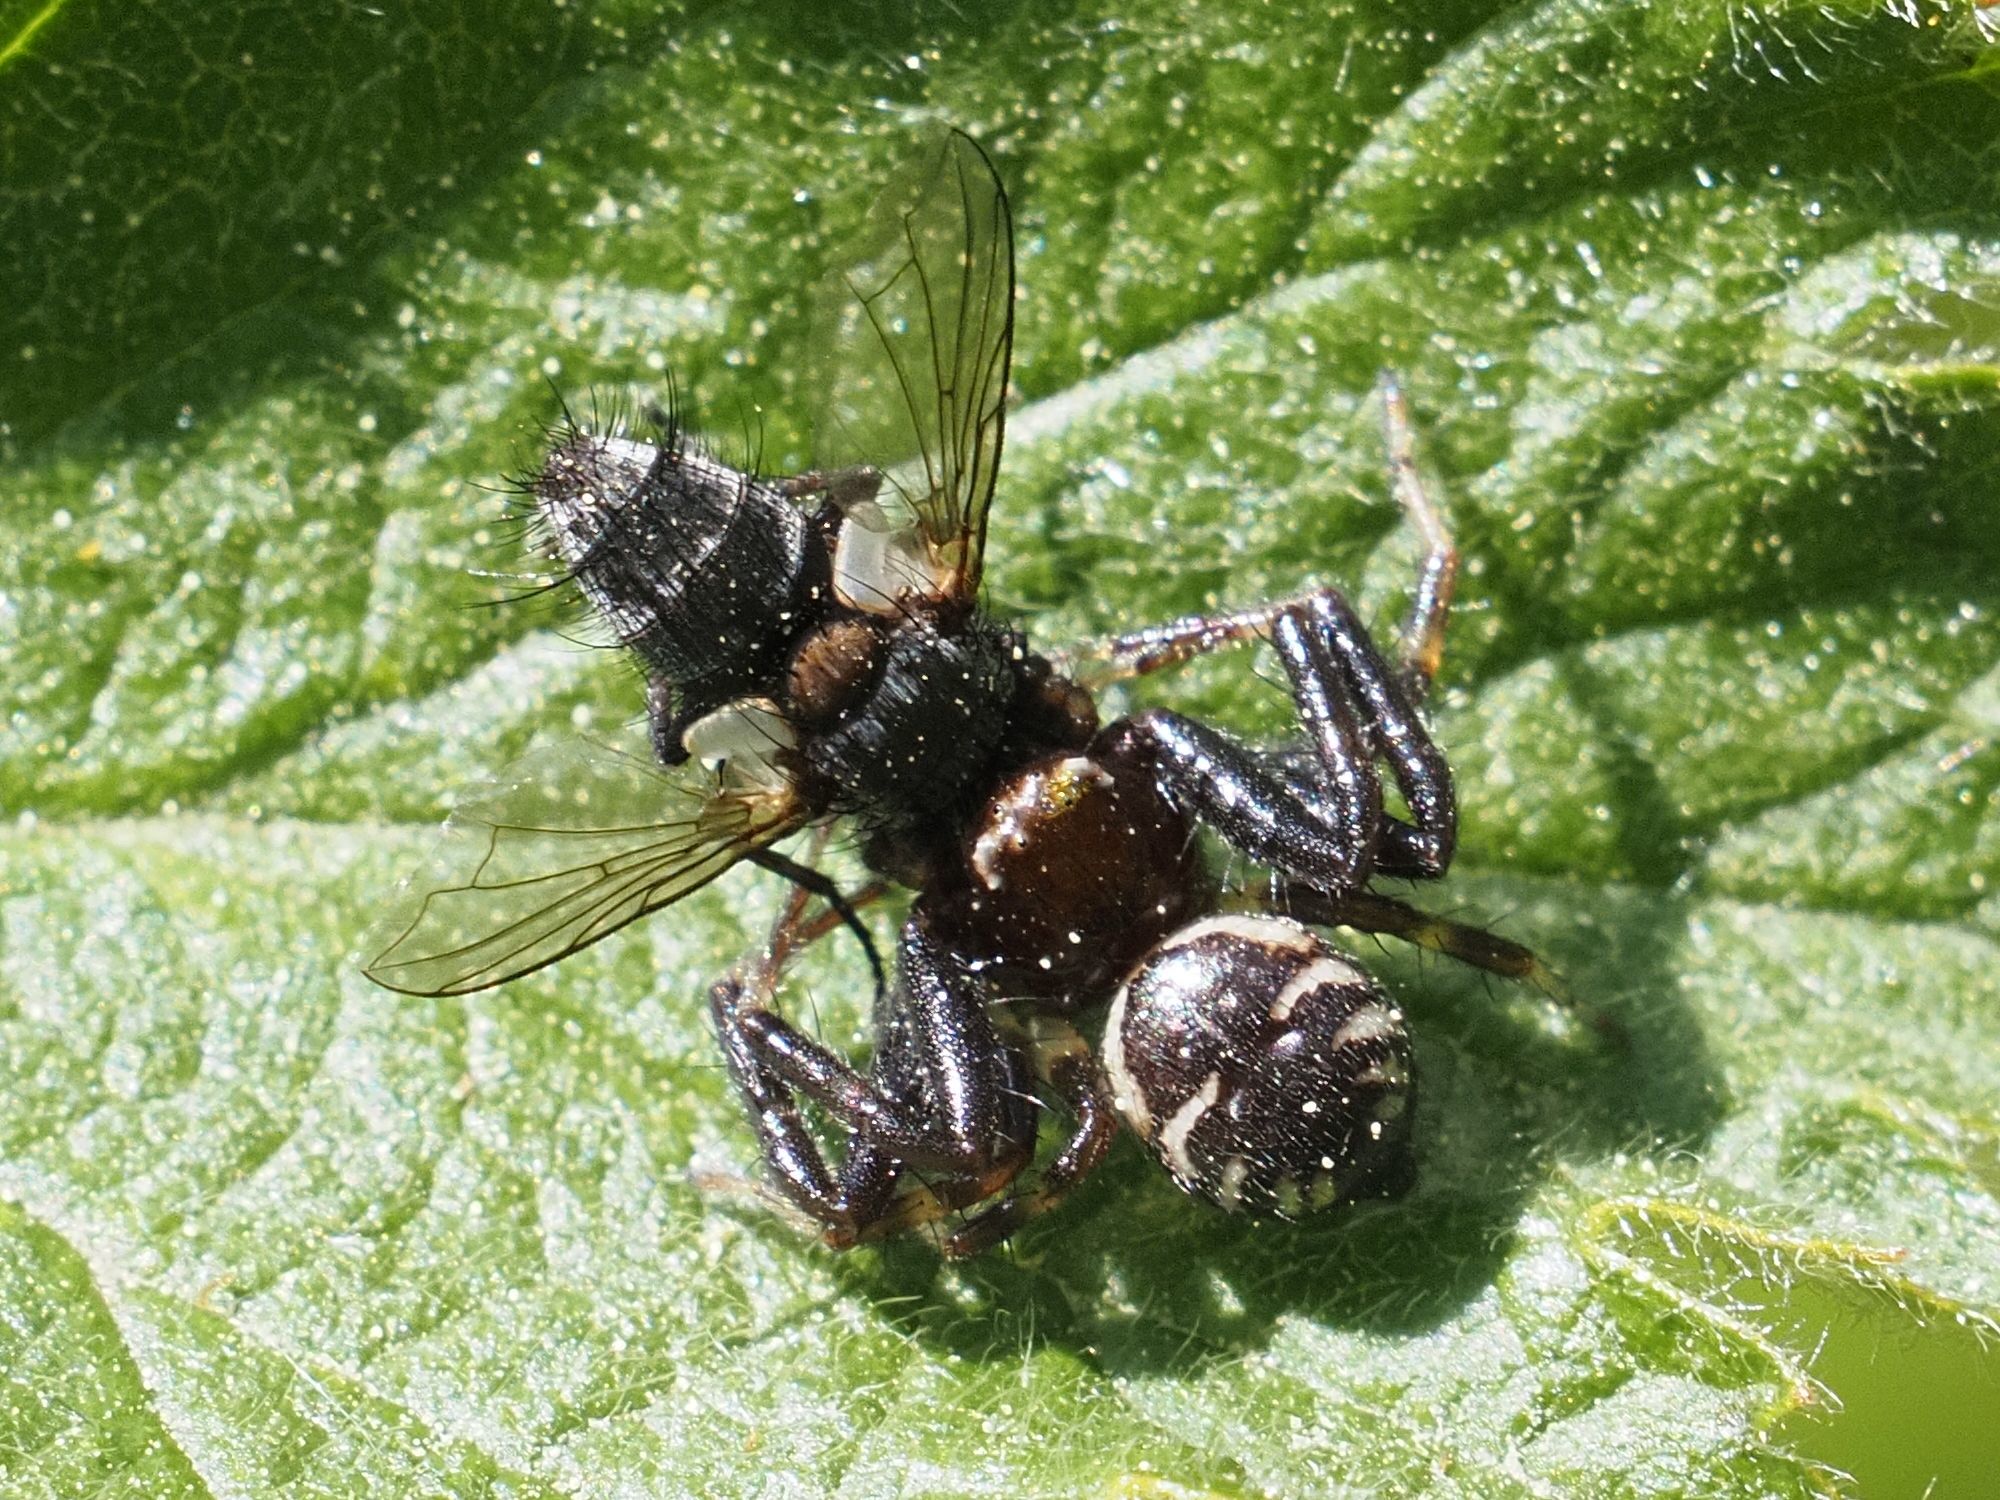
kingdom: Animalia
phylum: Arthropoda
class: Arachnida
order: Araneae
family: Thomisidae
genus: Synema
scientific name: Synema globosum
